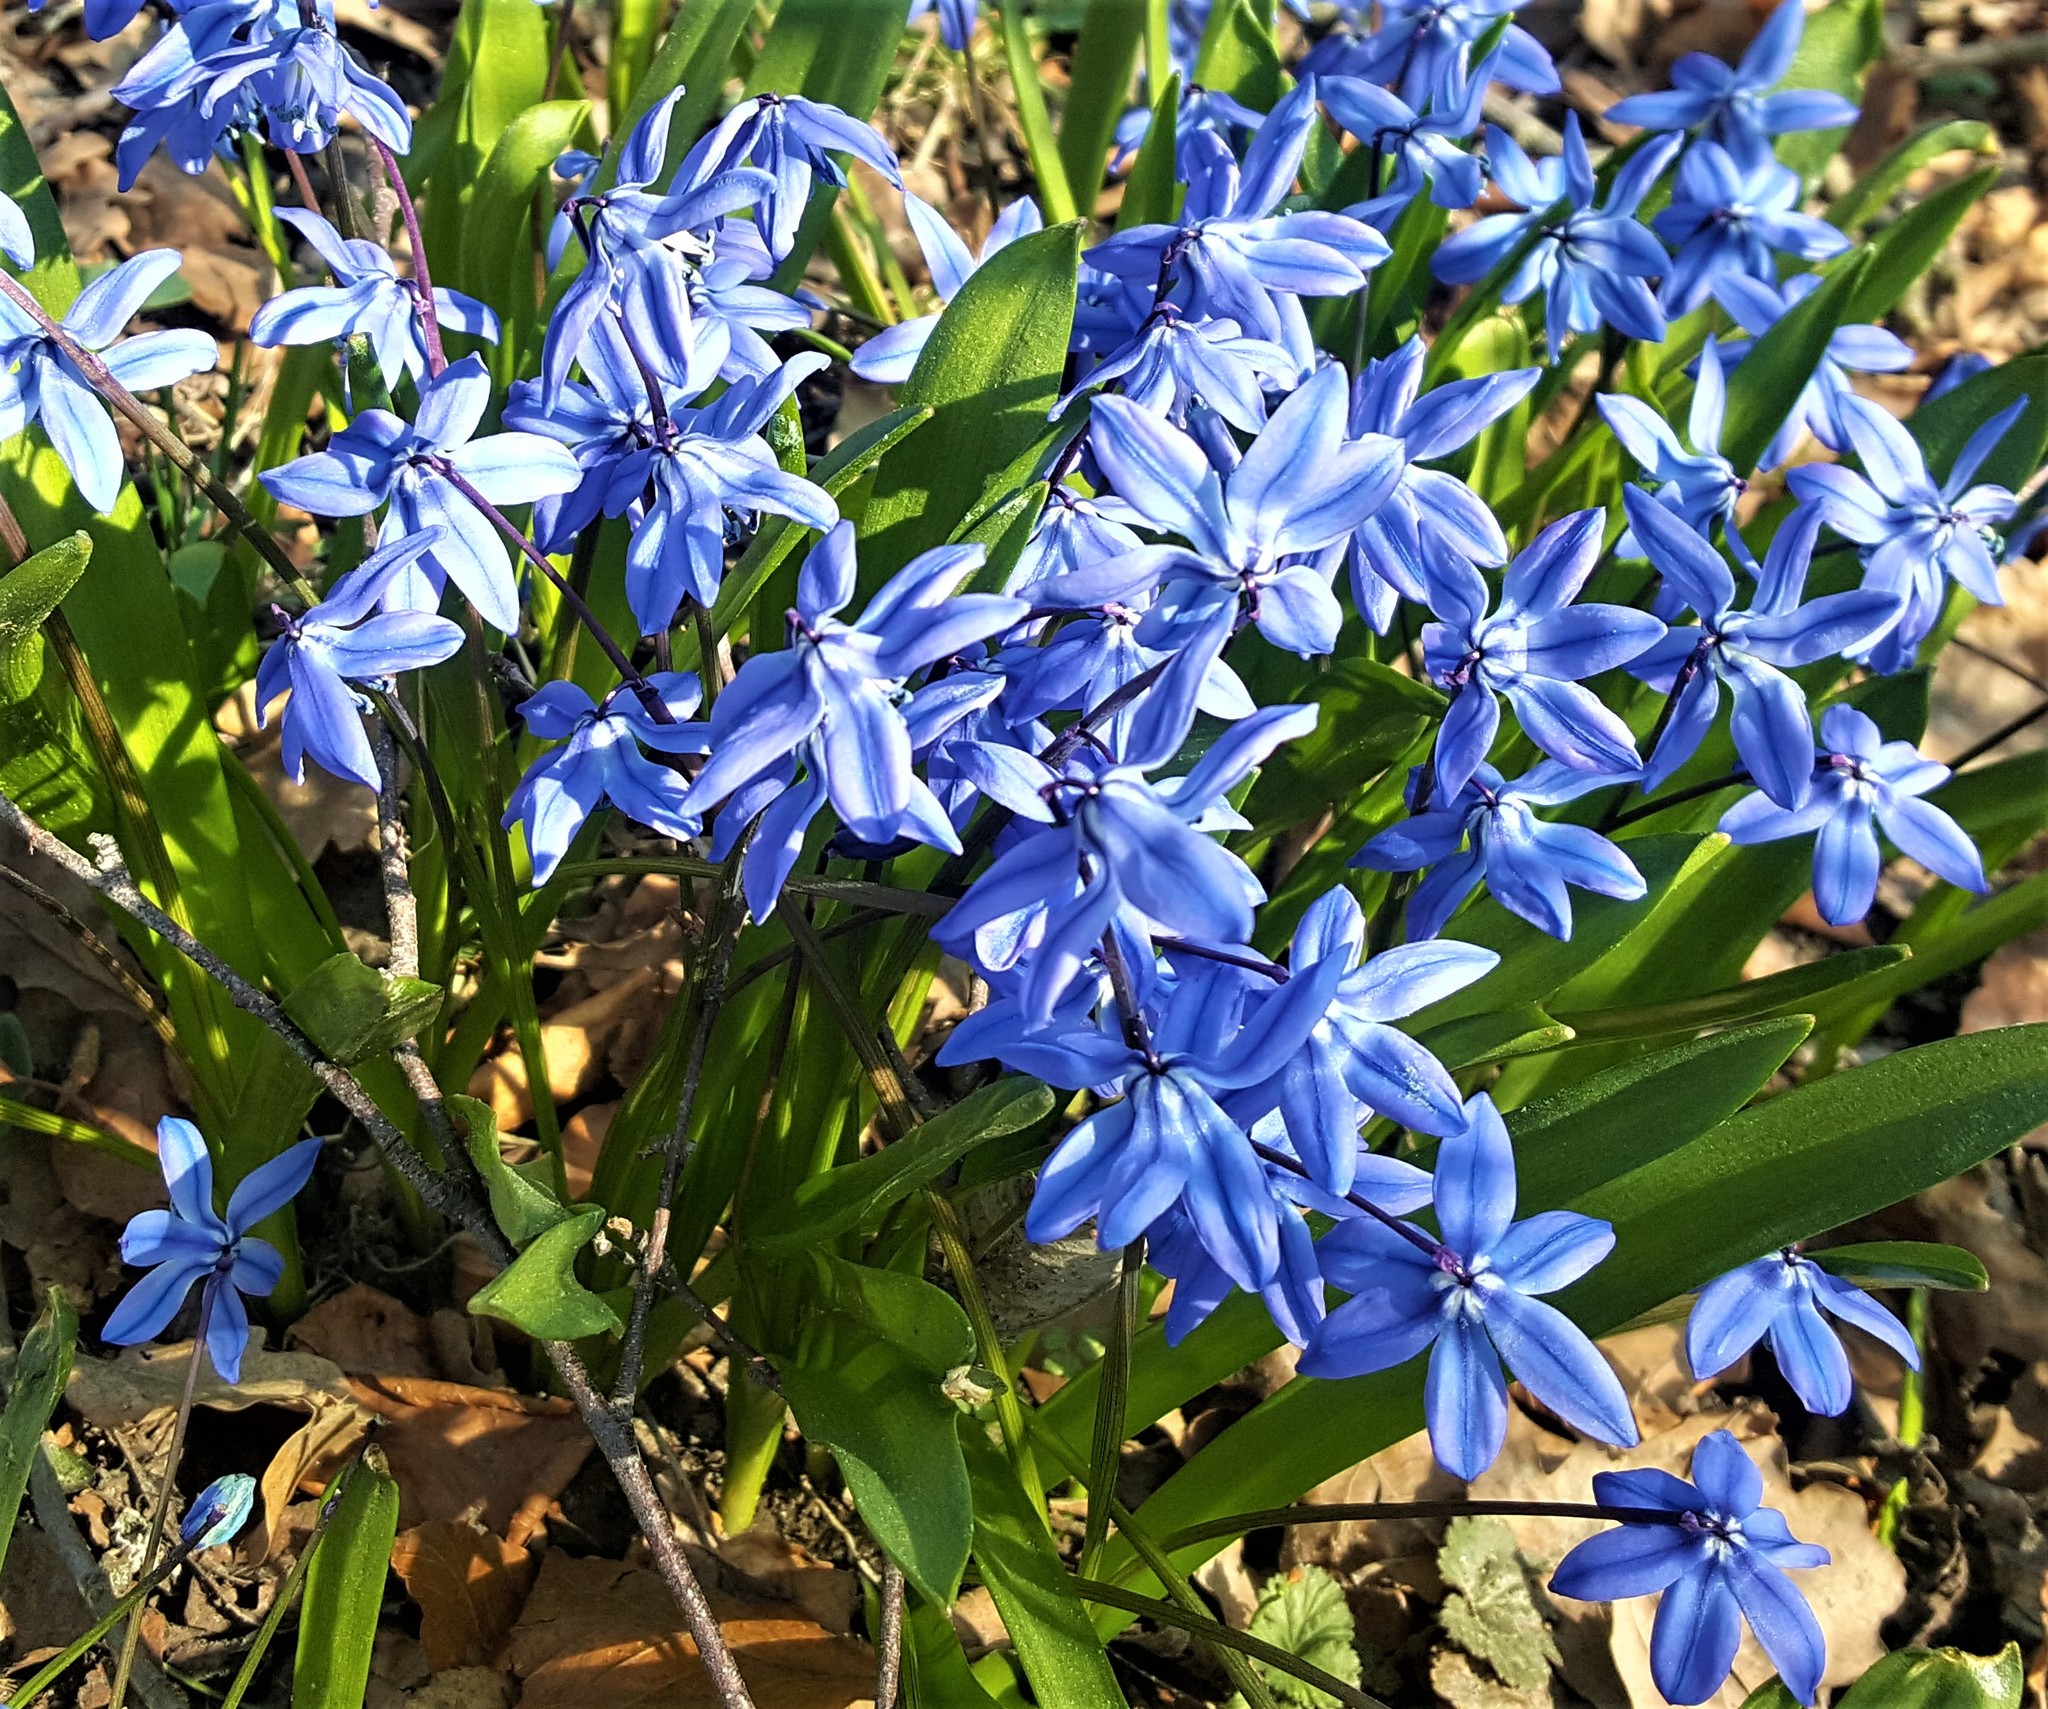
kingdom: Plantae
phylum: Tracheophyta
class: Liliopsida
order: Asparagales
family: Asparagaceae
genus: Scilla
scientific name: Scilla siberica
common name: Siberian squill
